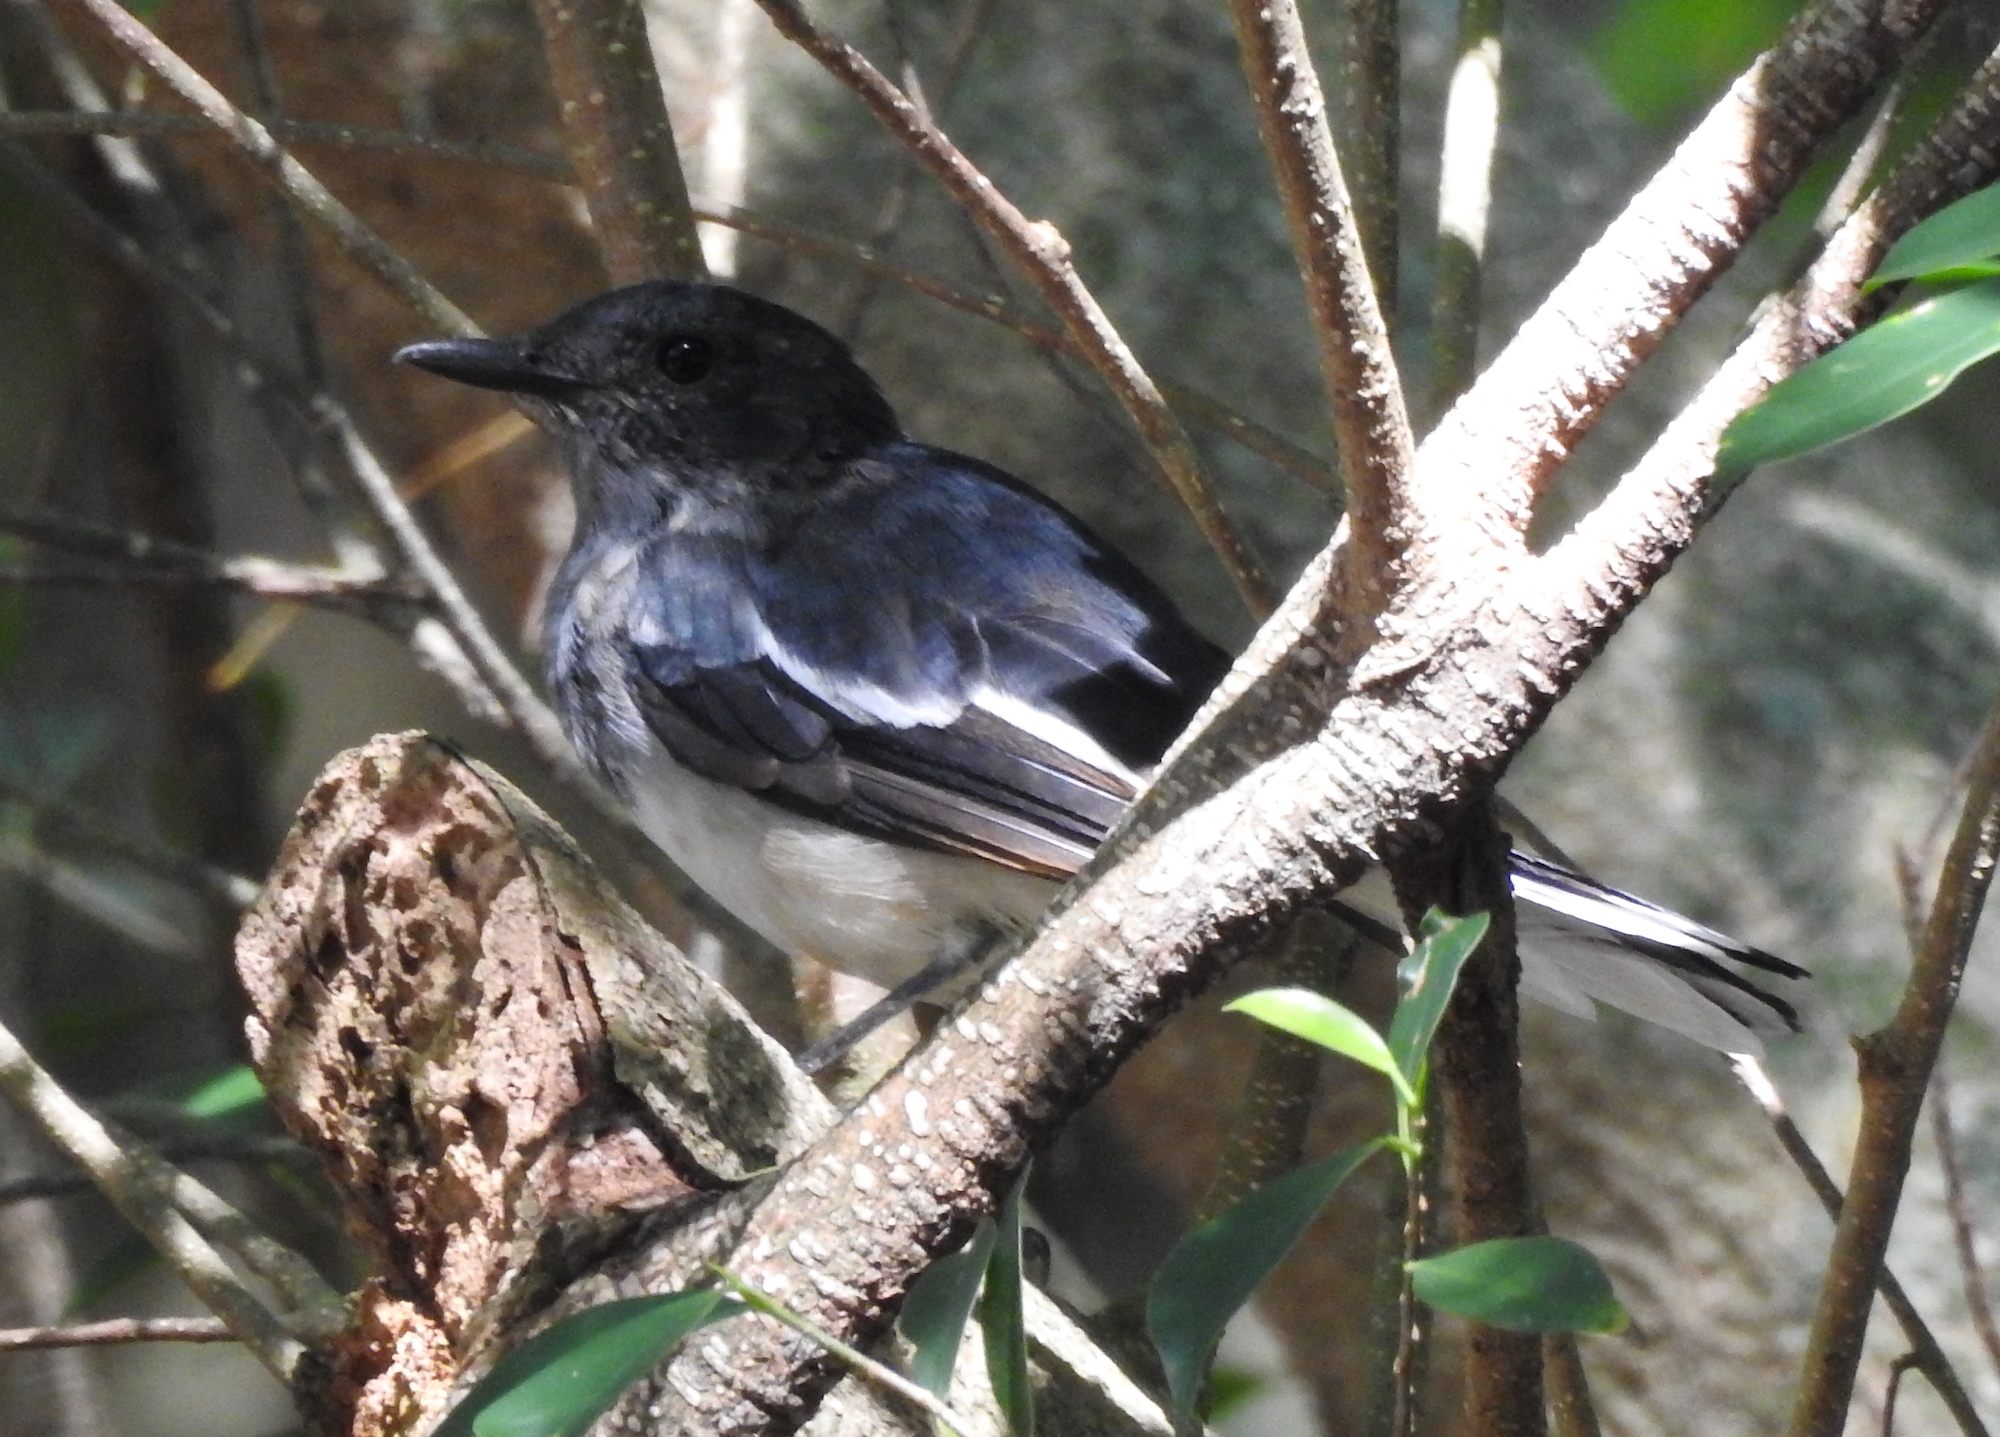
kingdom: Animalia
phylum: Chordata
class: Aves
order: Passeriformes
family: Muscicapidae
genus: Copsychus
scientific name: Copsychus saularis
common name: Oriental magpie-robin
